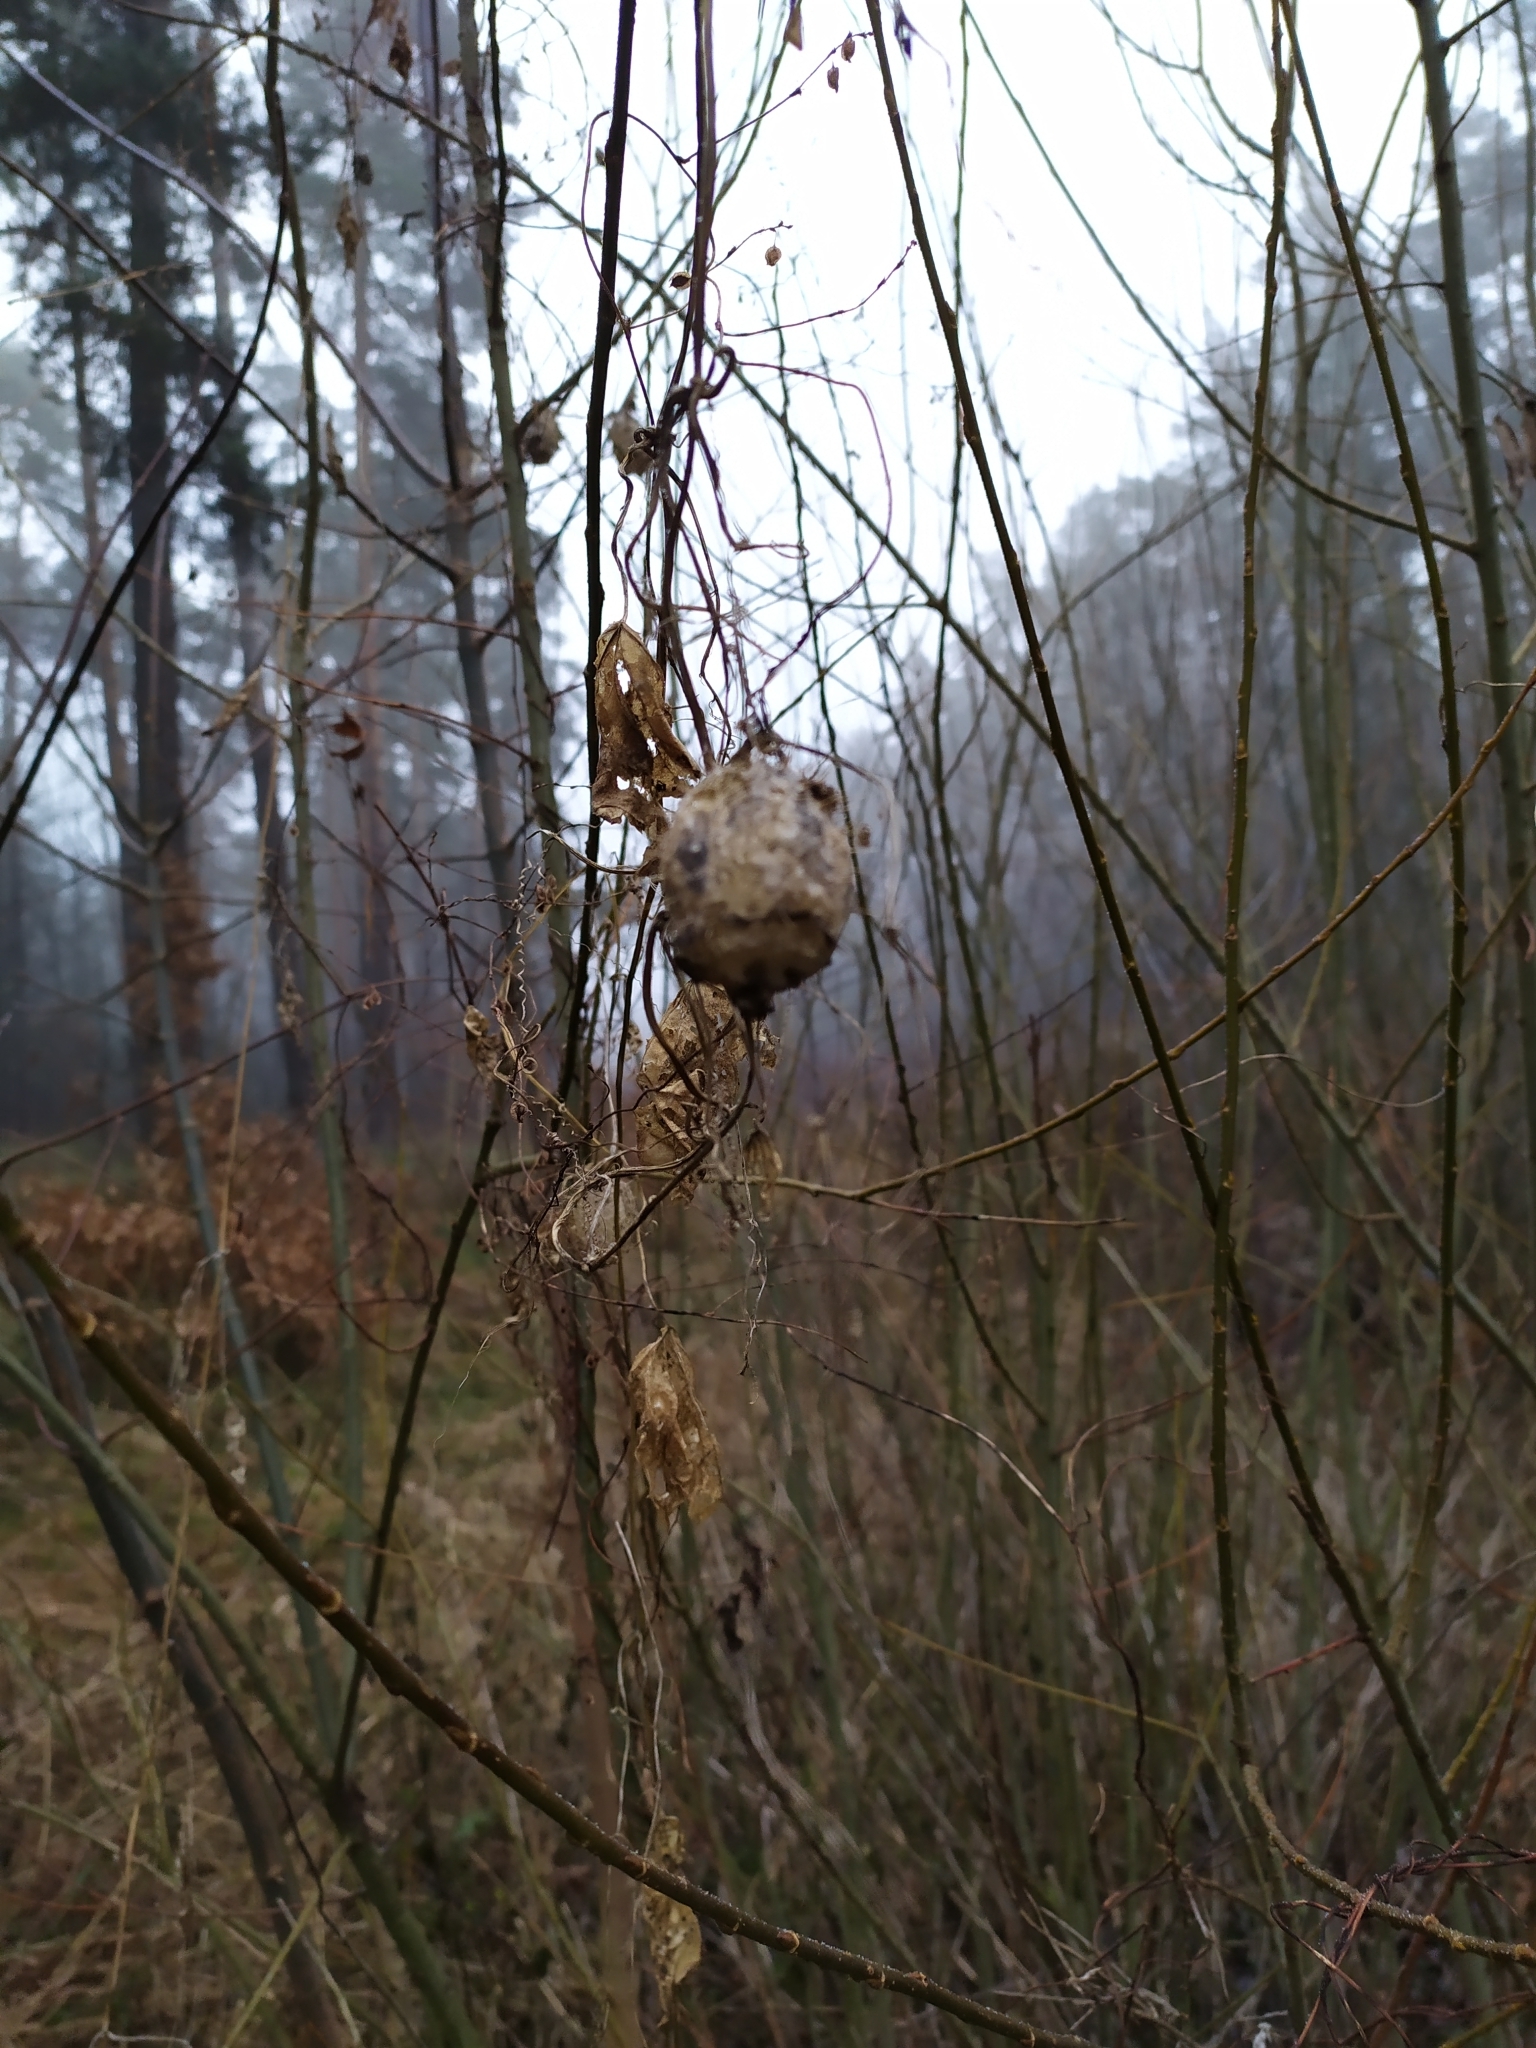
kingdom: Plantae
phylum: Tracheophyta
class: Magnoliopsida
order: Cucurbitales
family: Cucurbitaceae
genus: Echinocystis
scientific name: Echinocystis lobata
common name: Wild cucumber
